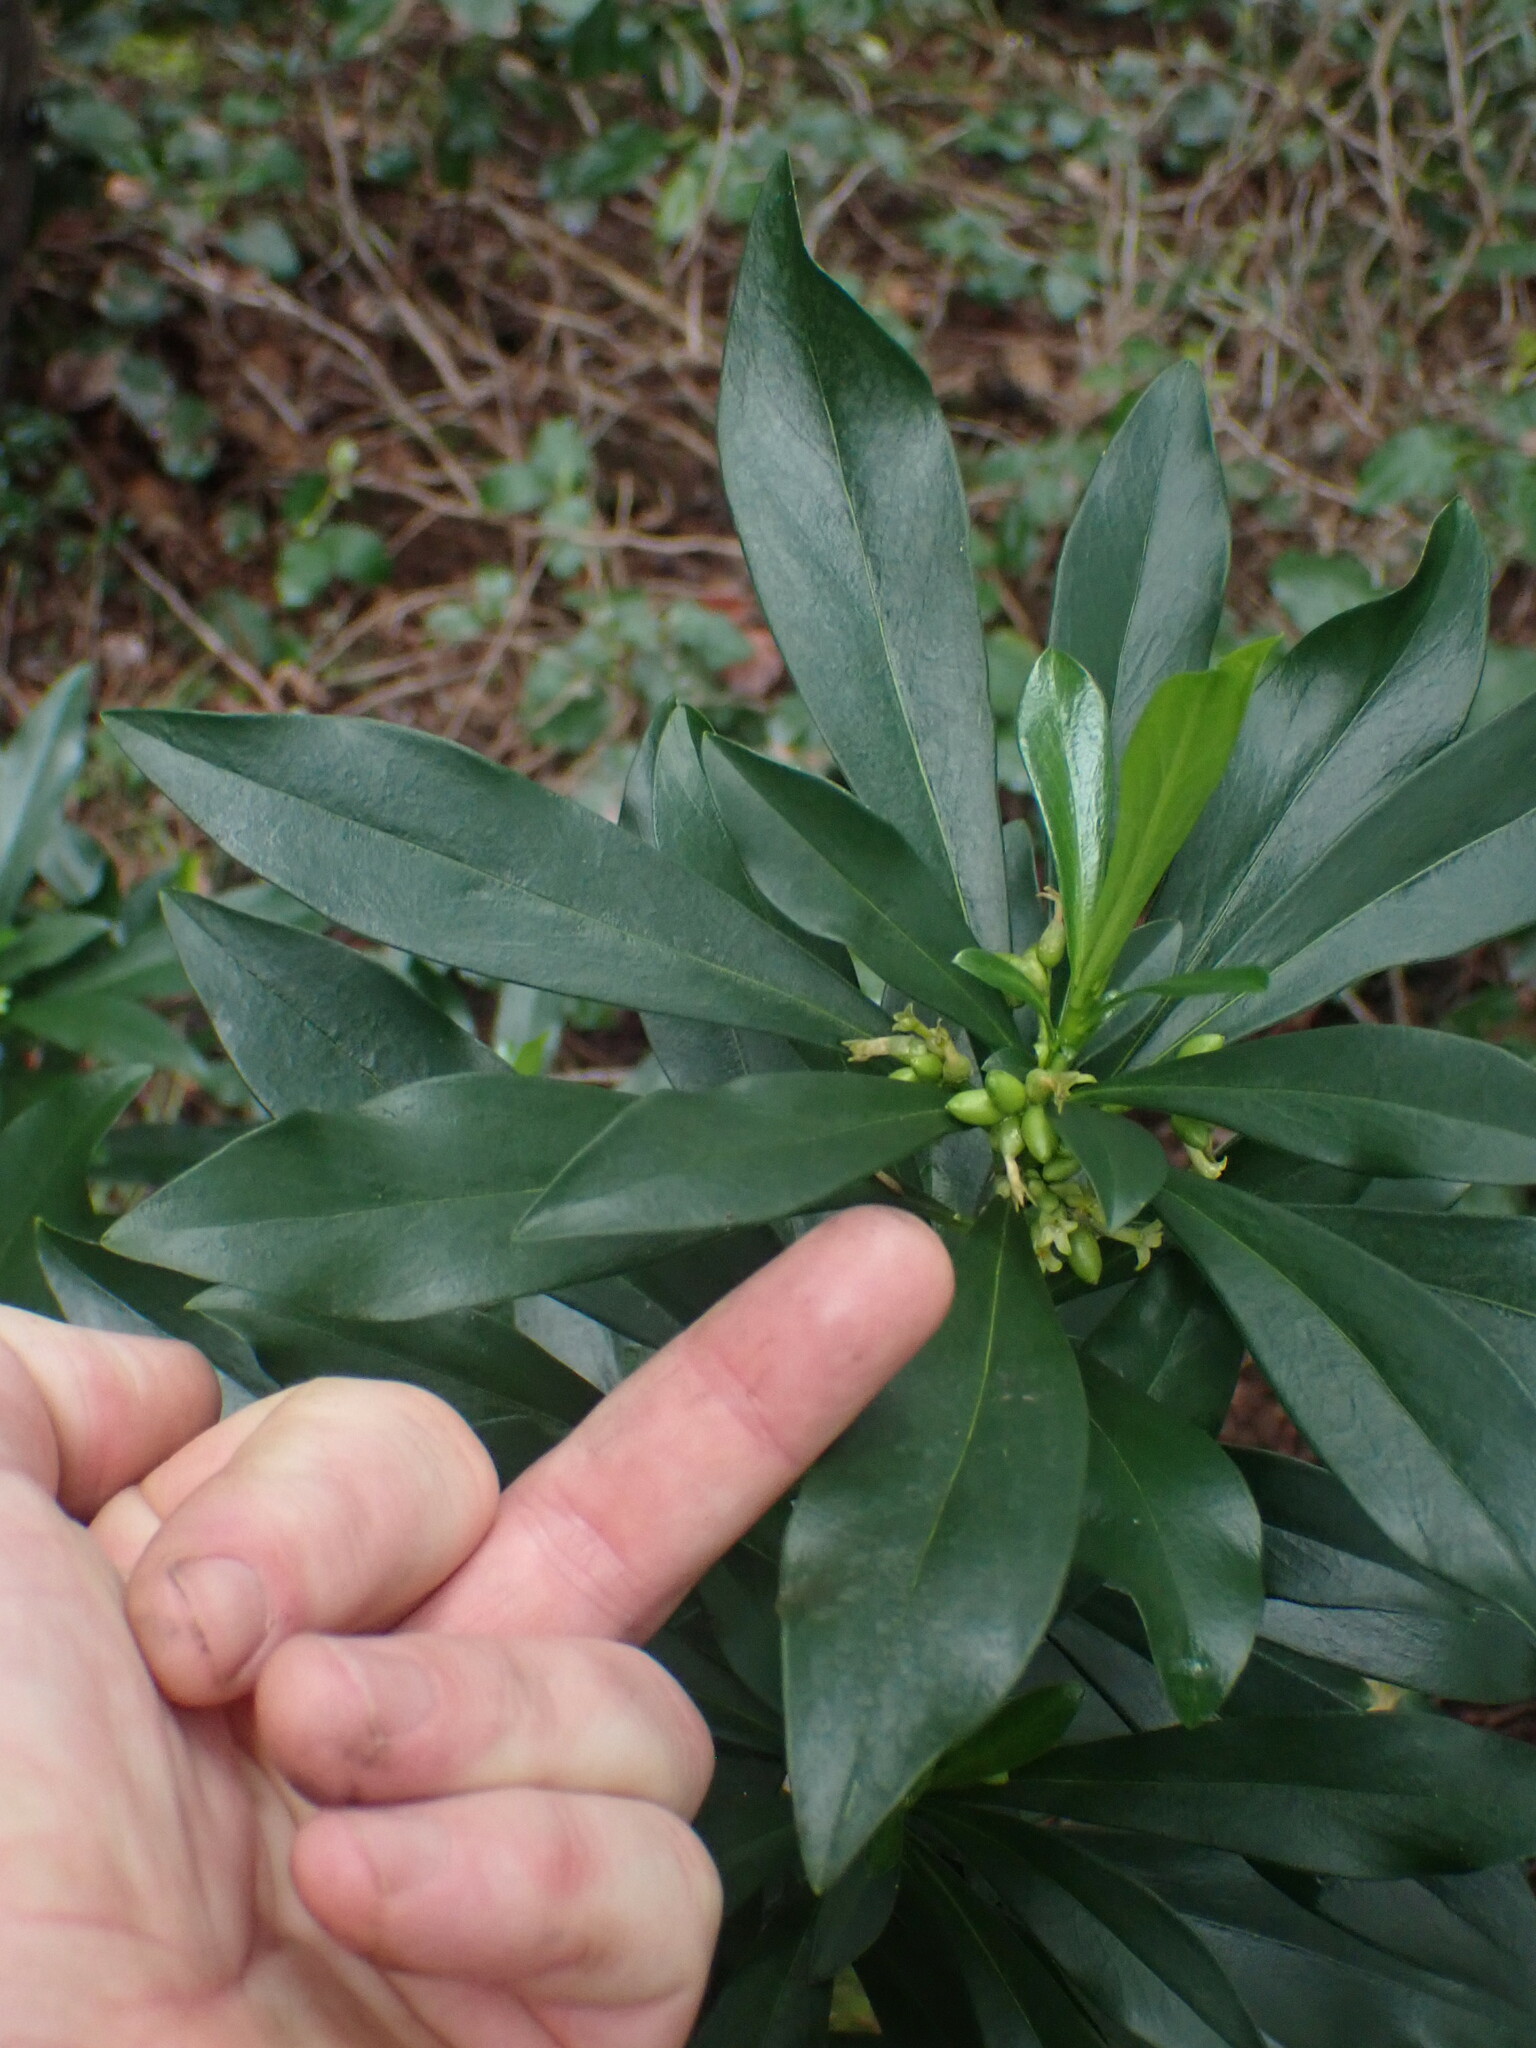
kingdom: Plantae
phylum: Tracheophyta
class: Magnoliopsida
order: Malvales
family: Thymelaeaceae
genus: Daphne
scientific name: Daphne laureola
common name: Spurge-laurel
